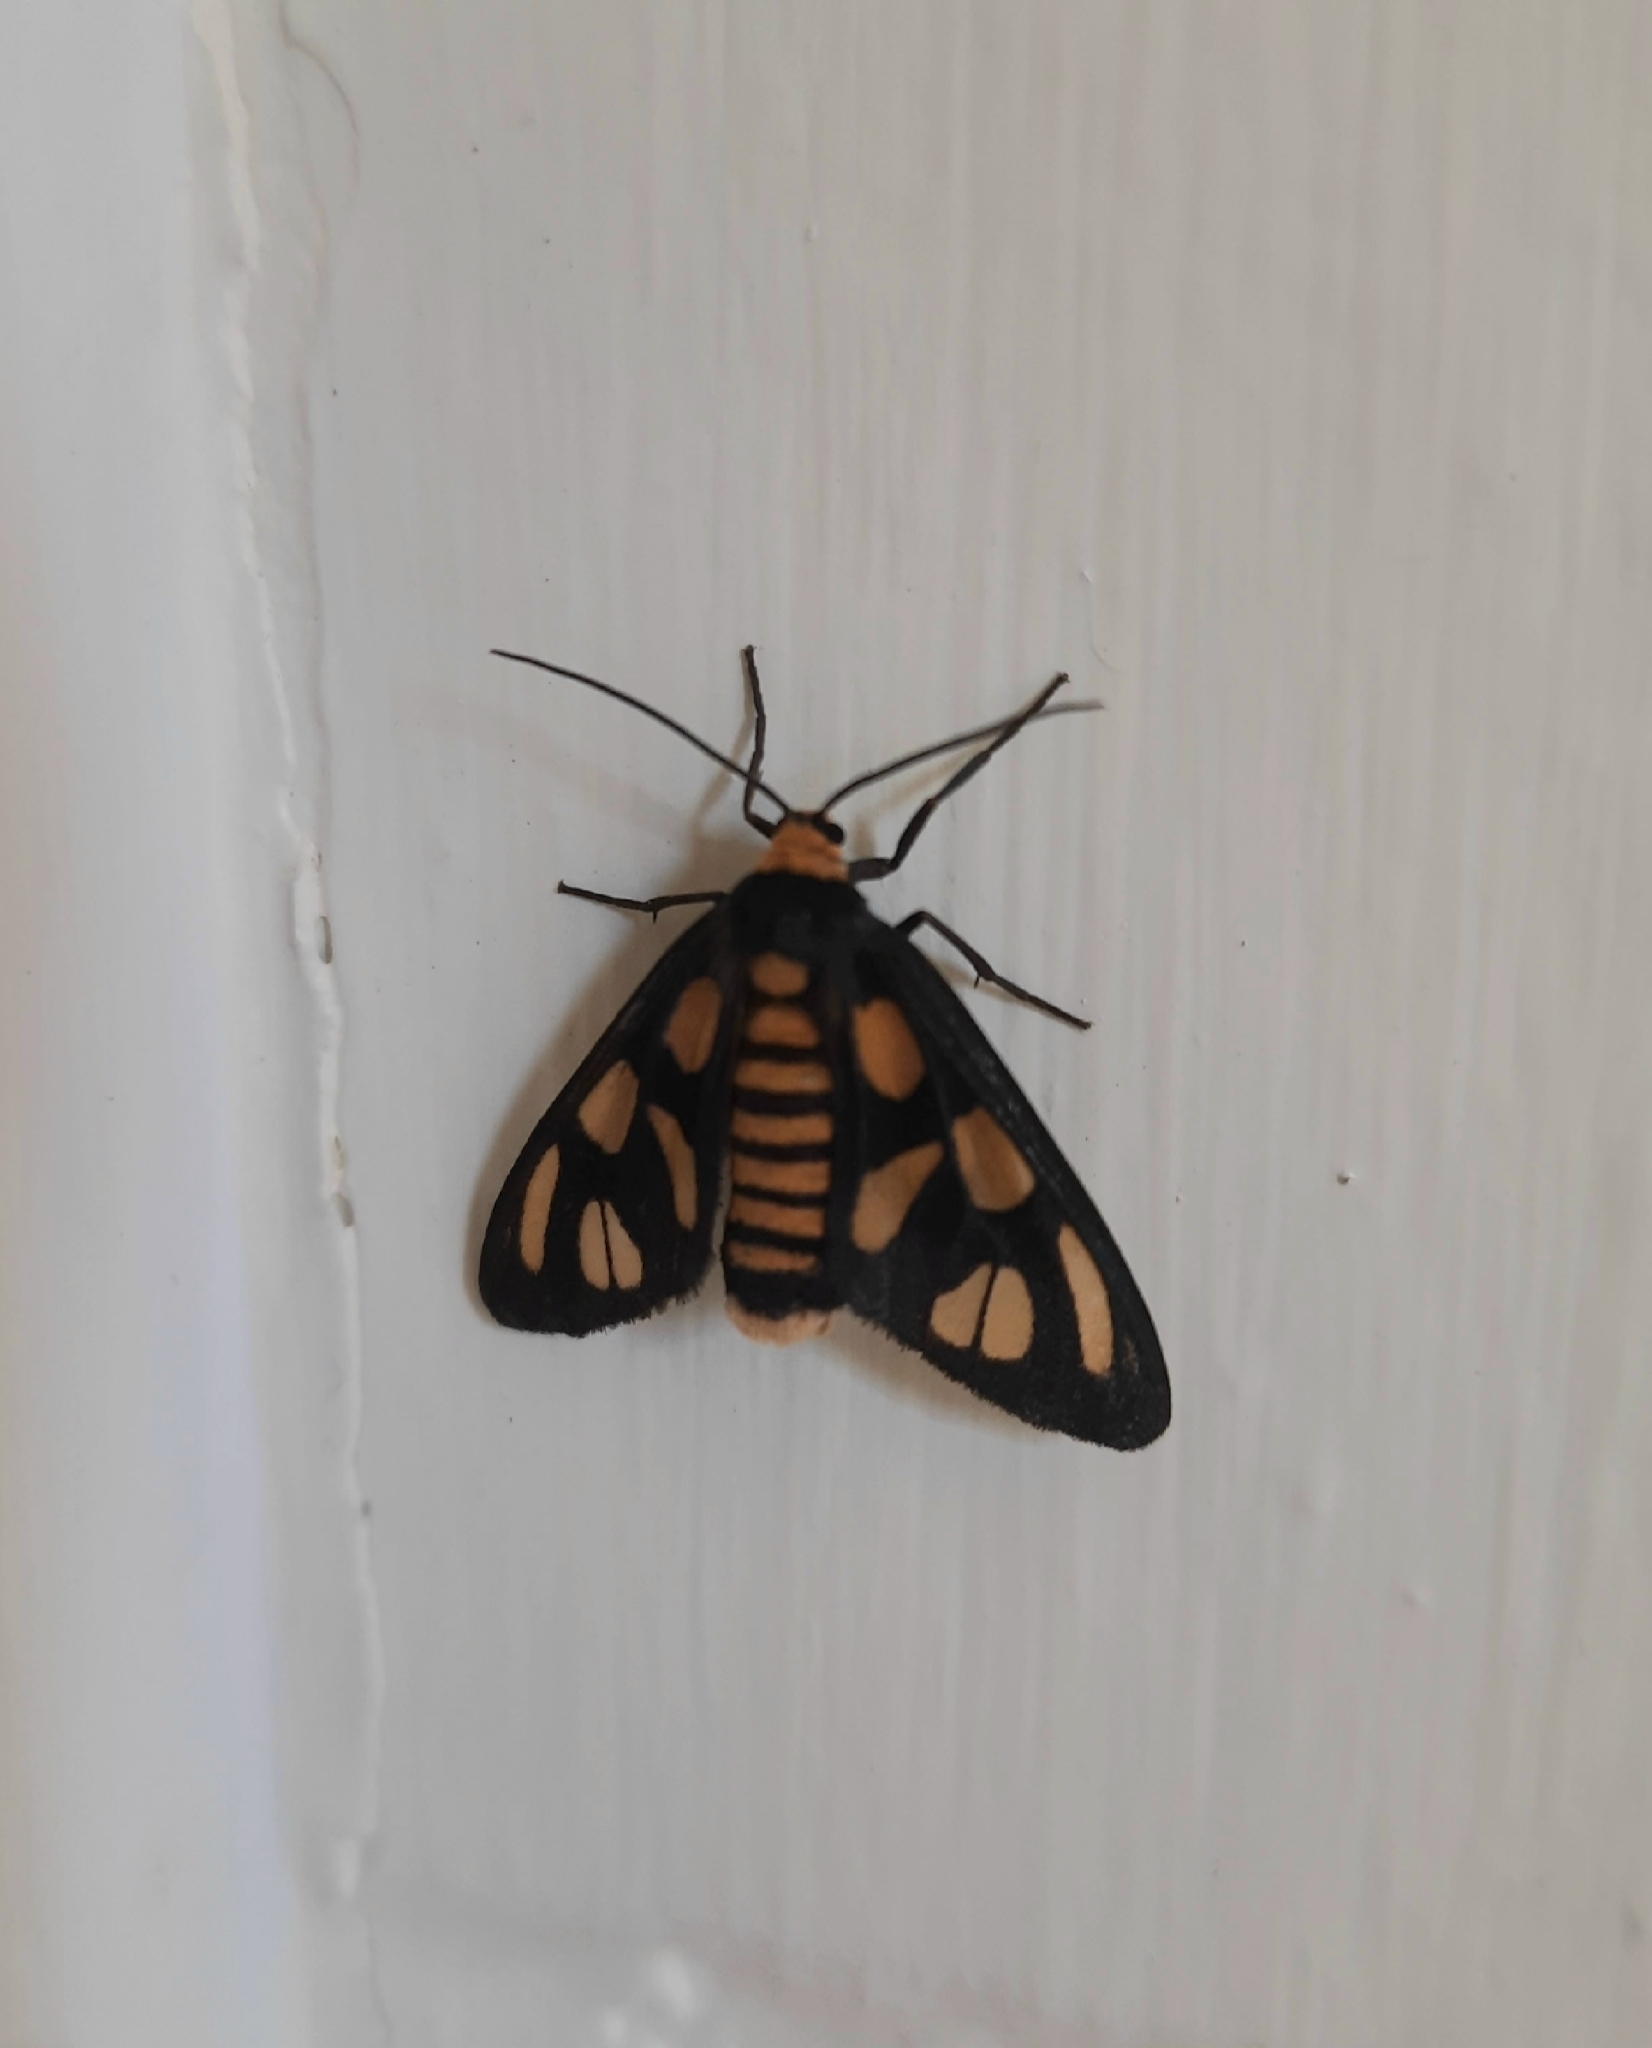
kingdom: Animalia
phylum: Arthropoda
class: Insecta
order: Lepidoptera
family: Erebidae
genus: Amata
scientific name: Amata nigriceps
